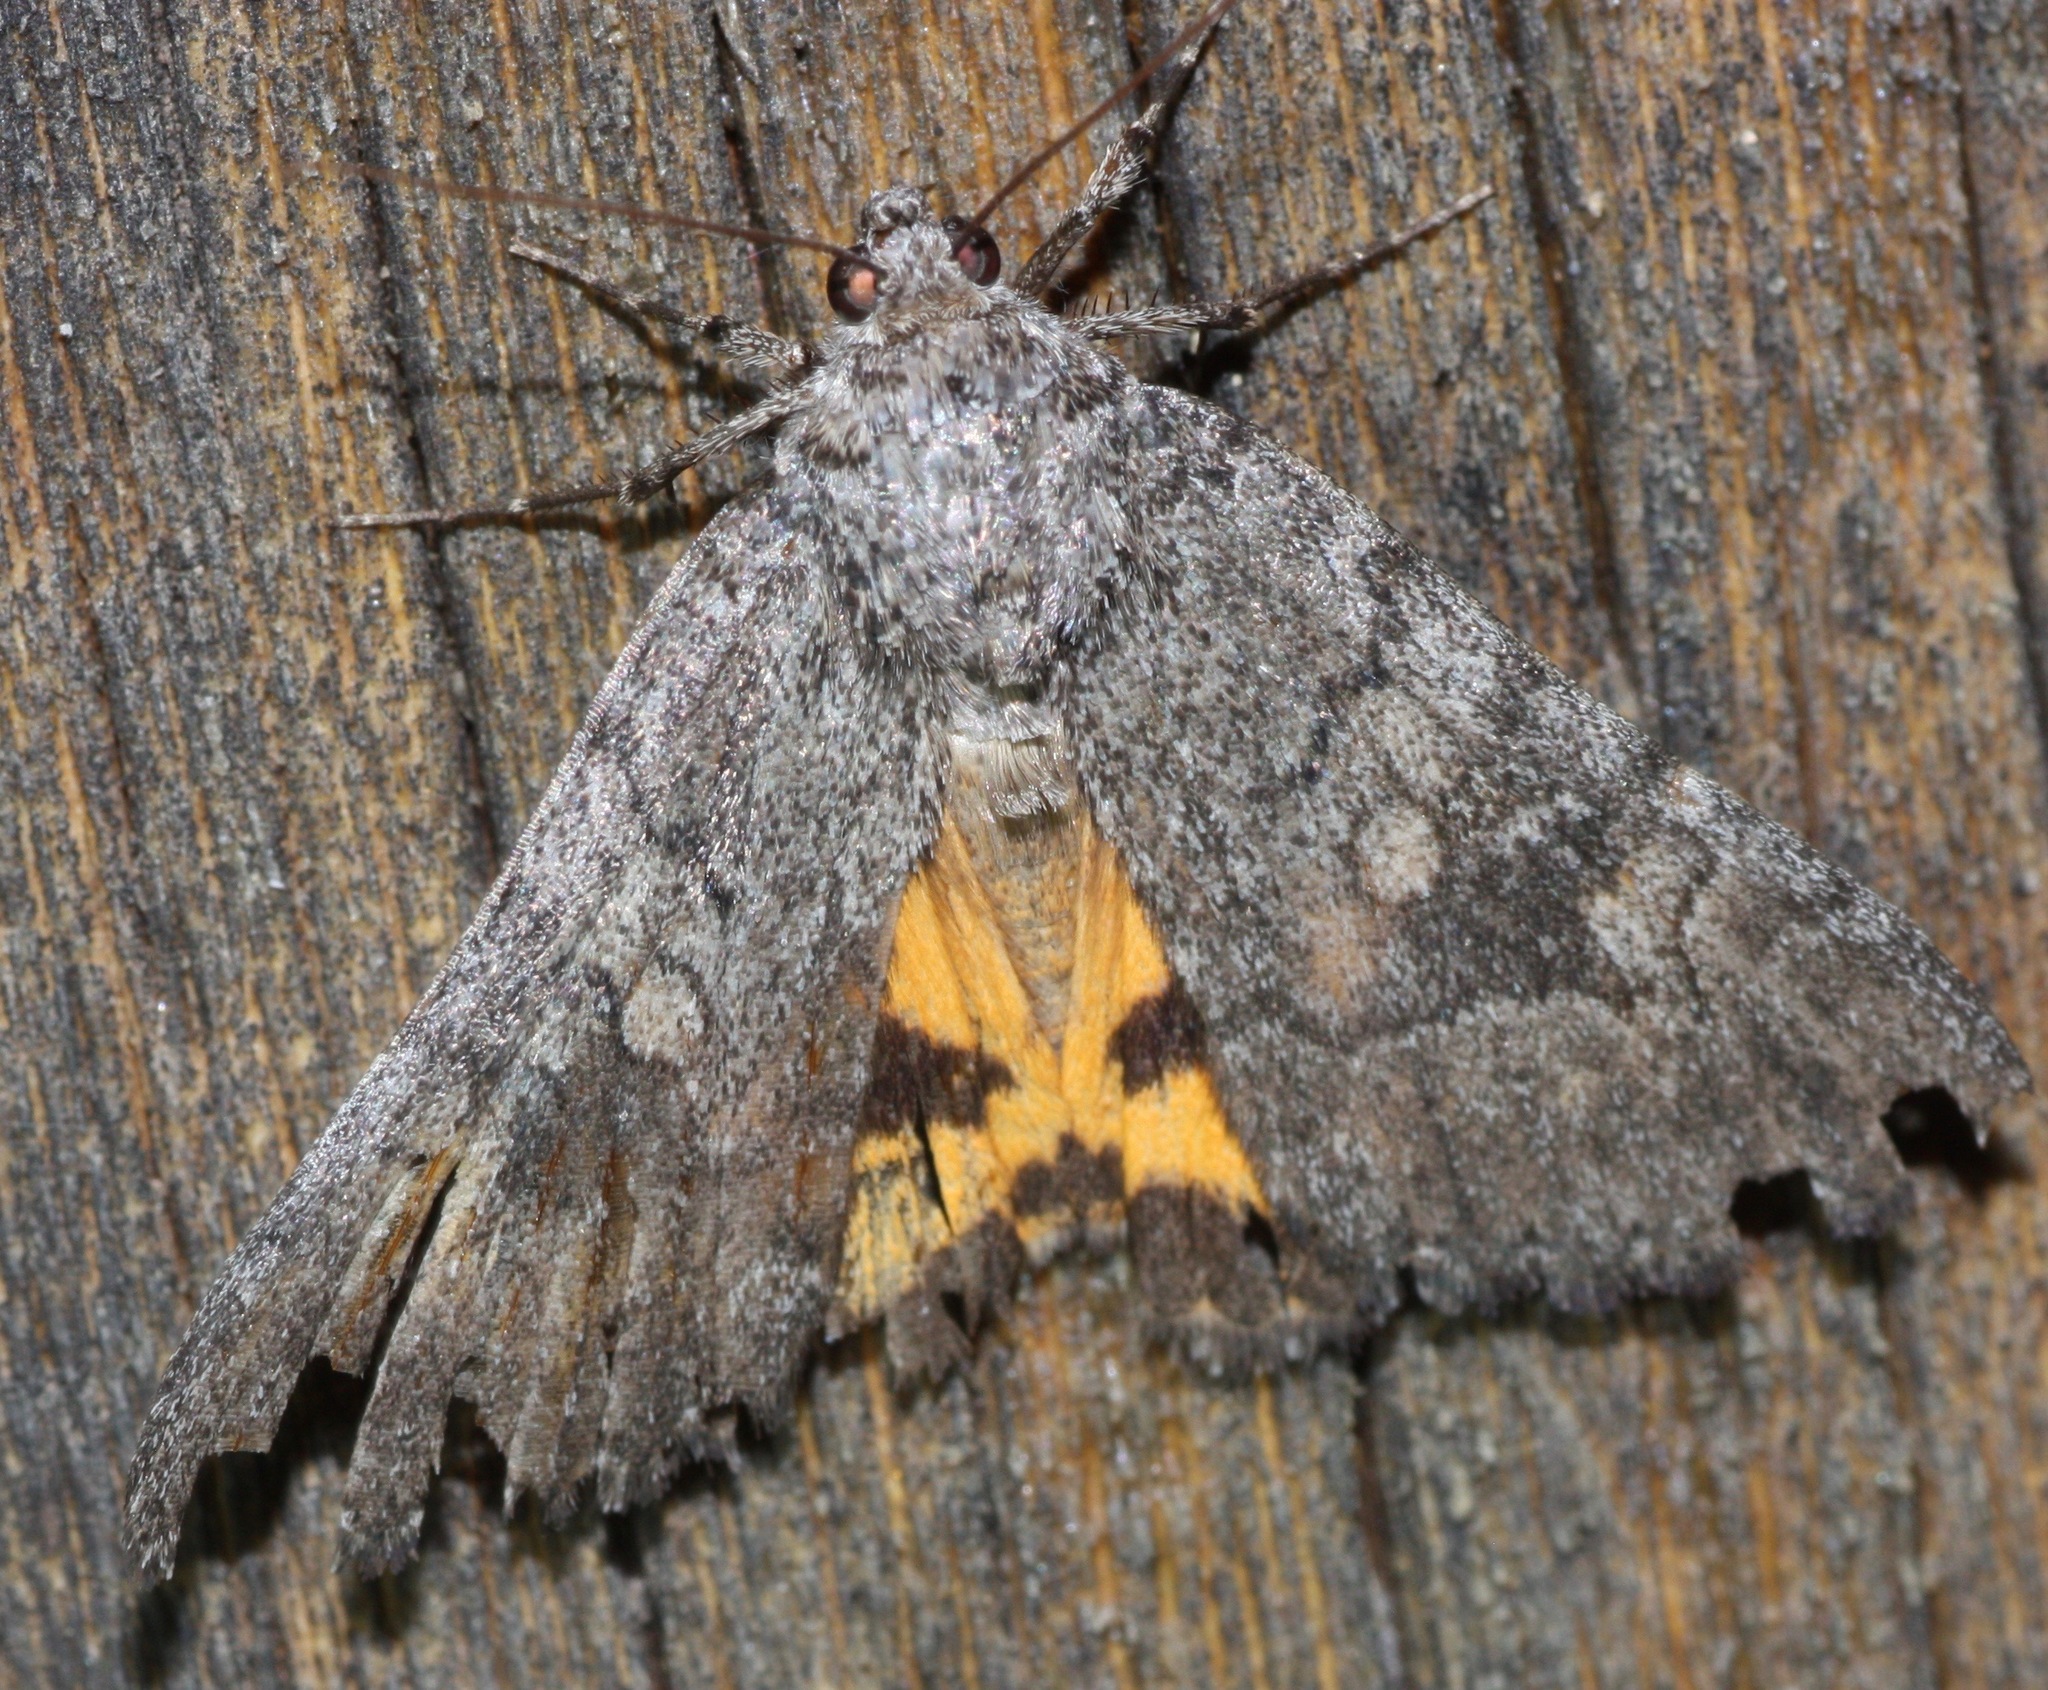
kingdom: Animalia
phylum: Arthropoda
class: Insecta
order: Lepidoptera
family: Erebidae
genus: Catocala
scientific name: Catocala chelidonia
